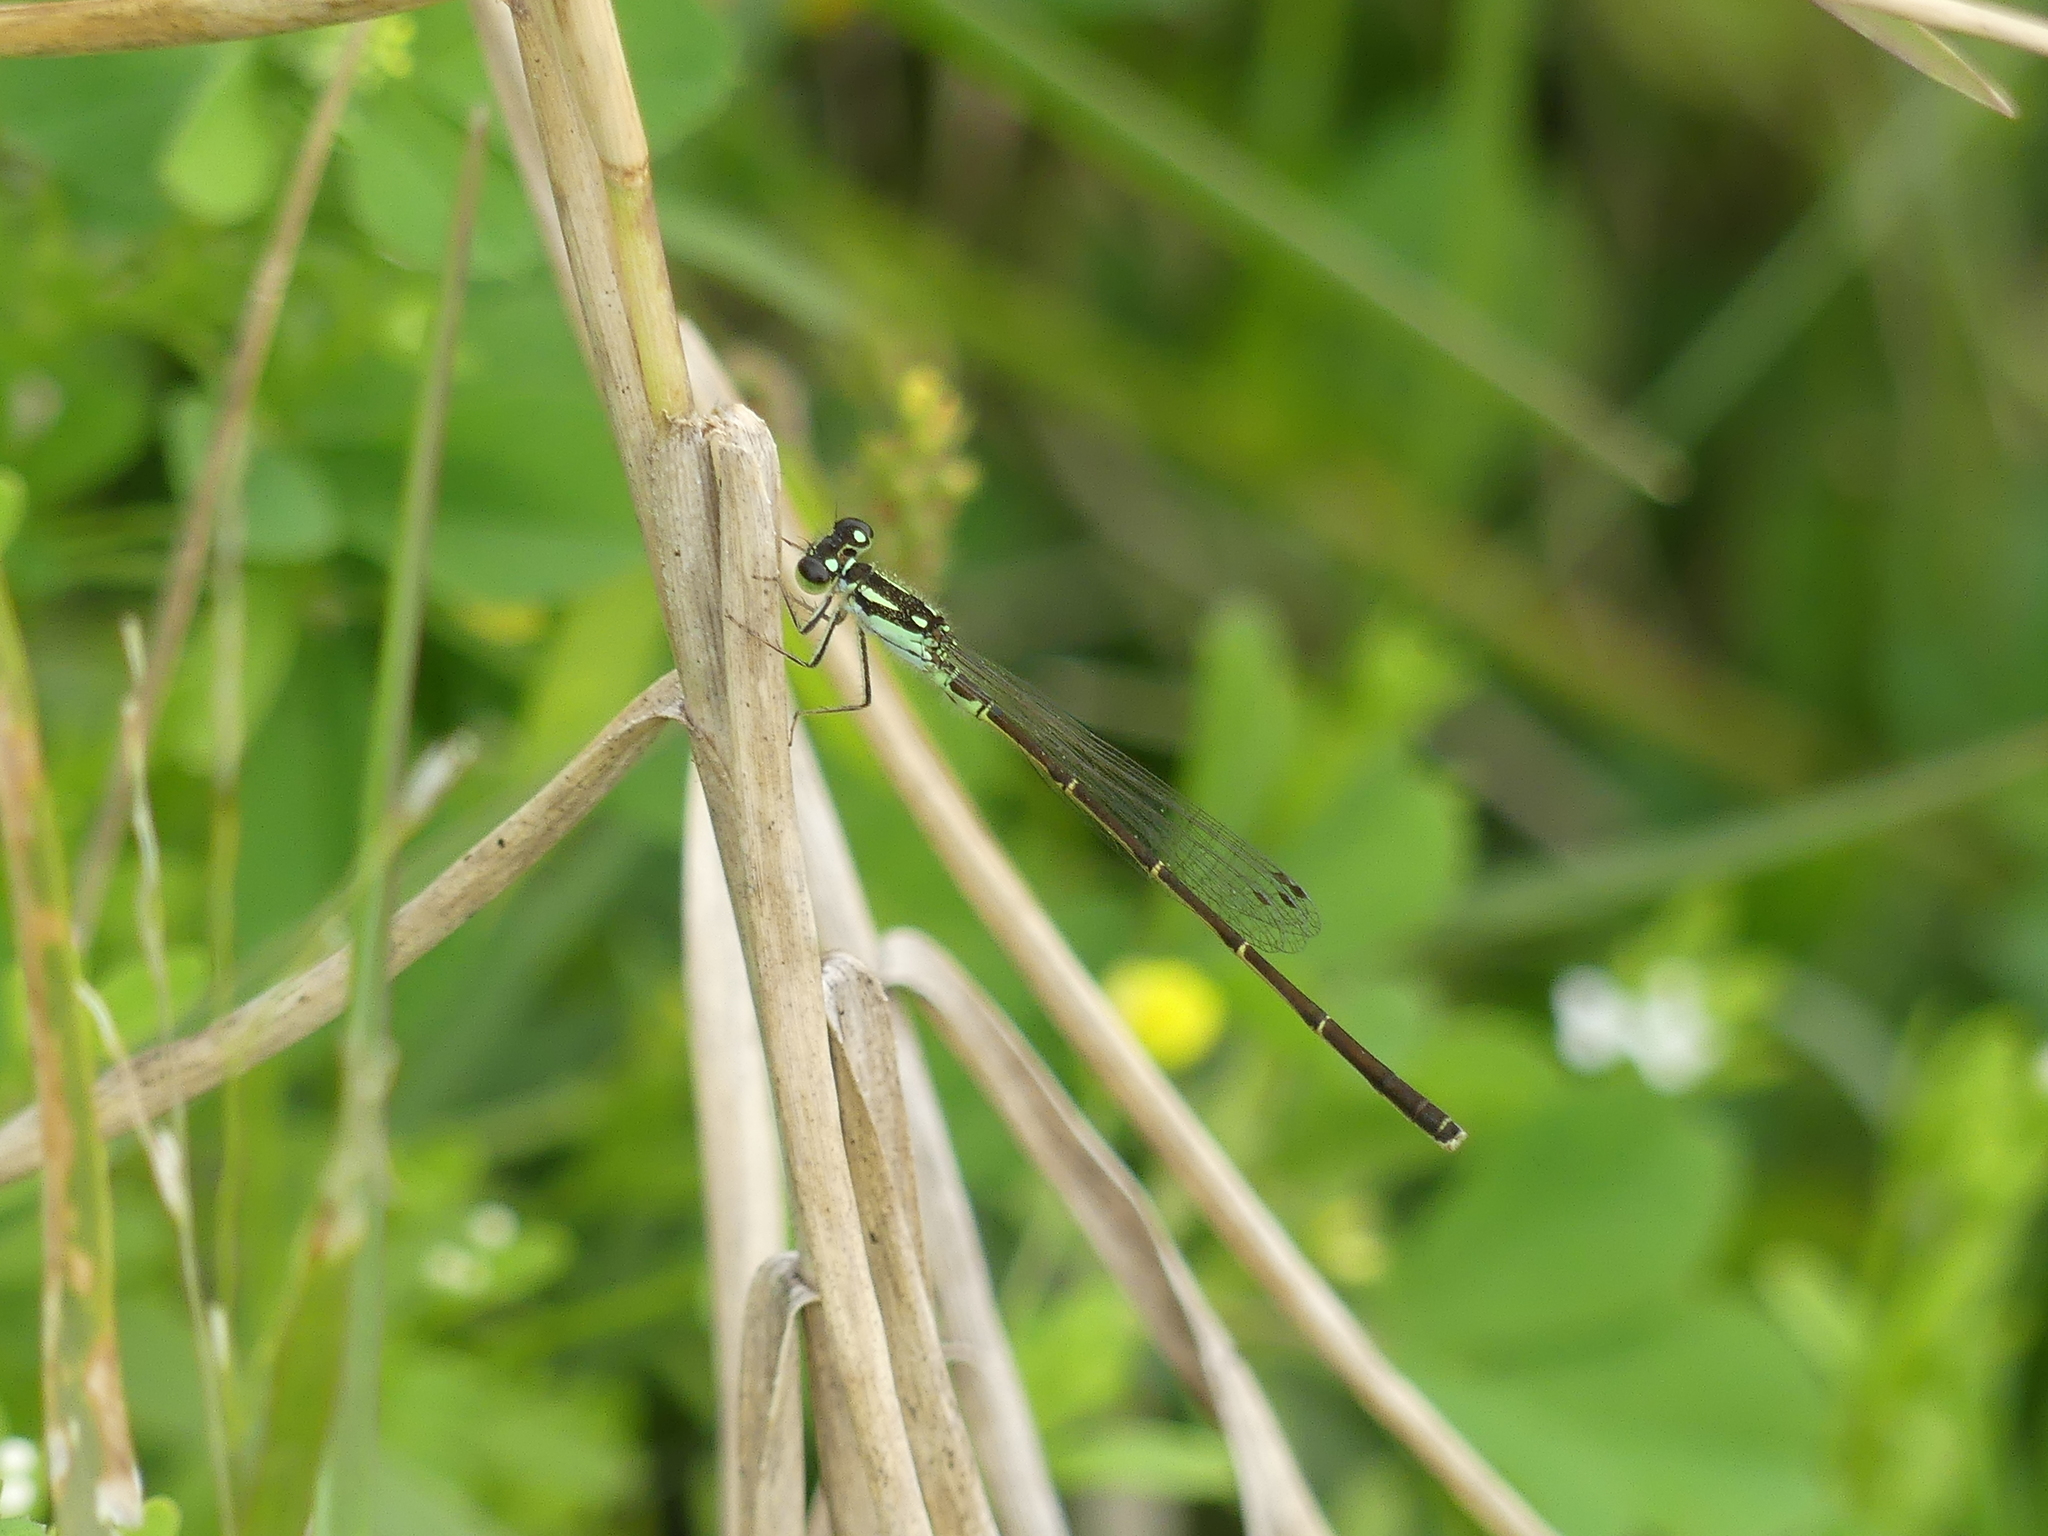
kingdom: Animalia
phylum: Arthropoda
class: Insecta
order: Odonata
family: Coenagrionidae
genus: Ischnura
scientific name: Ischnura posita
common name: Fragile forktail
